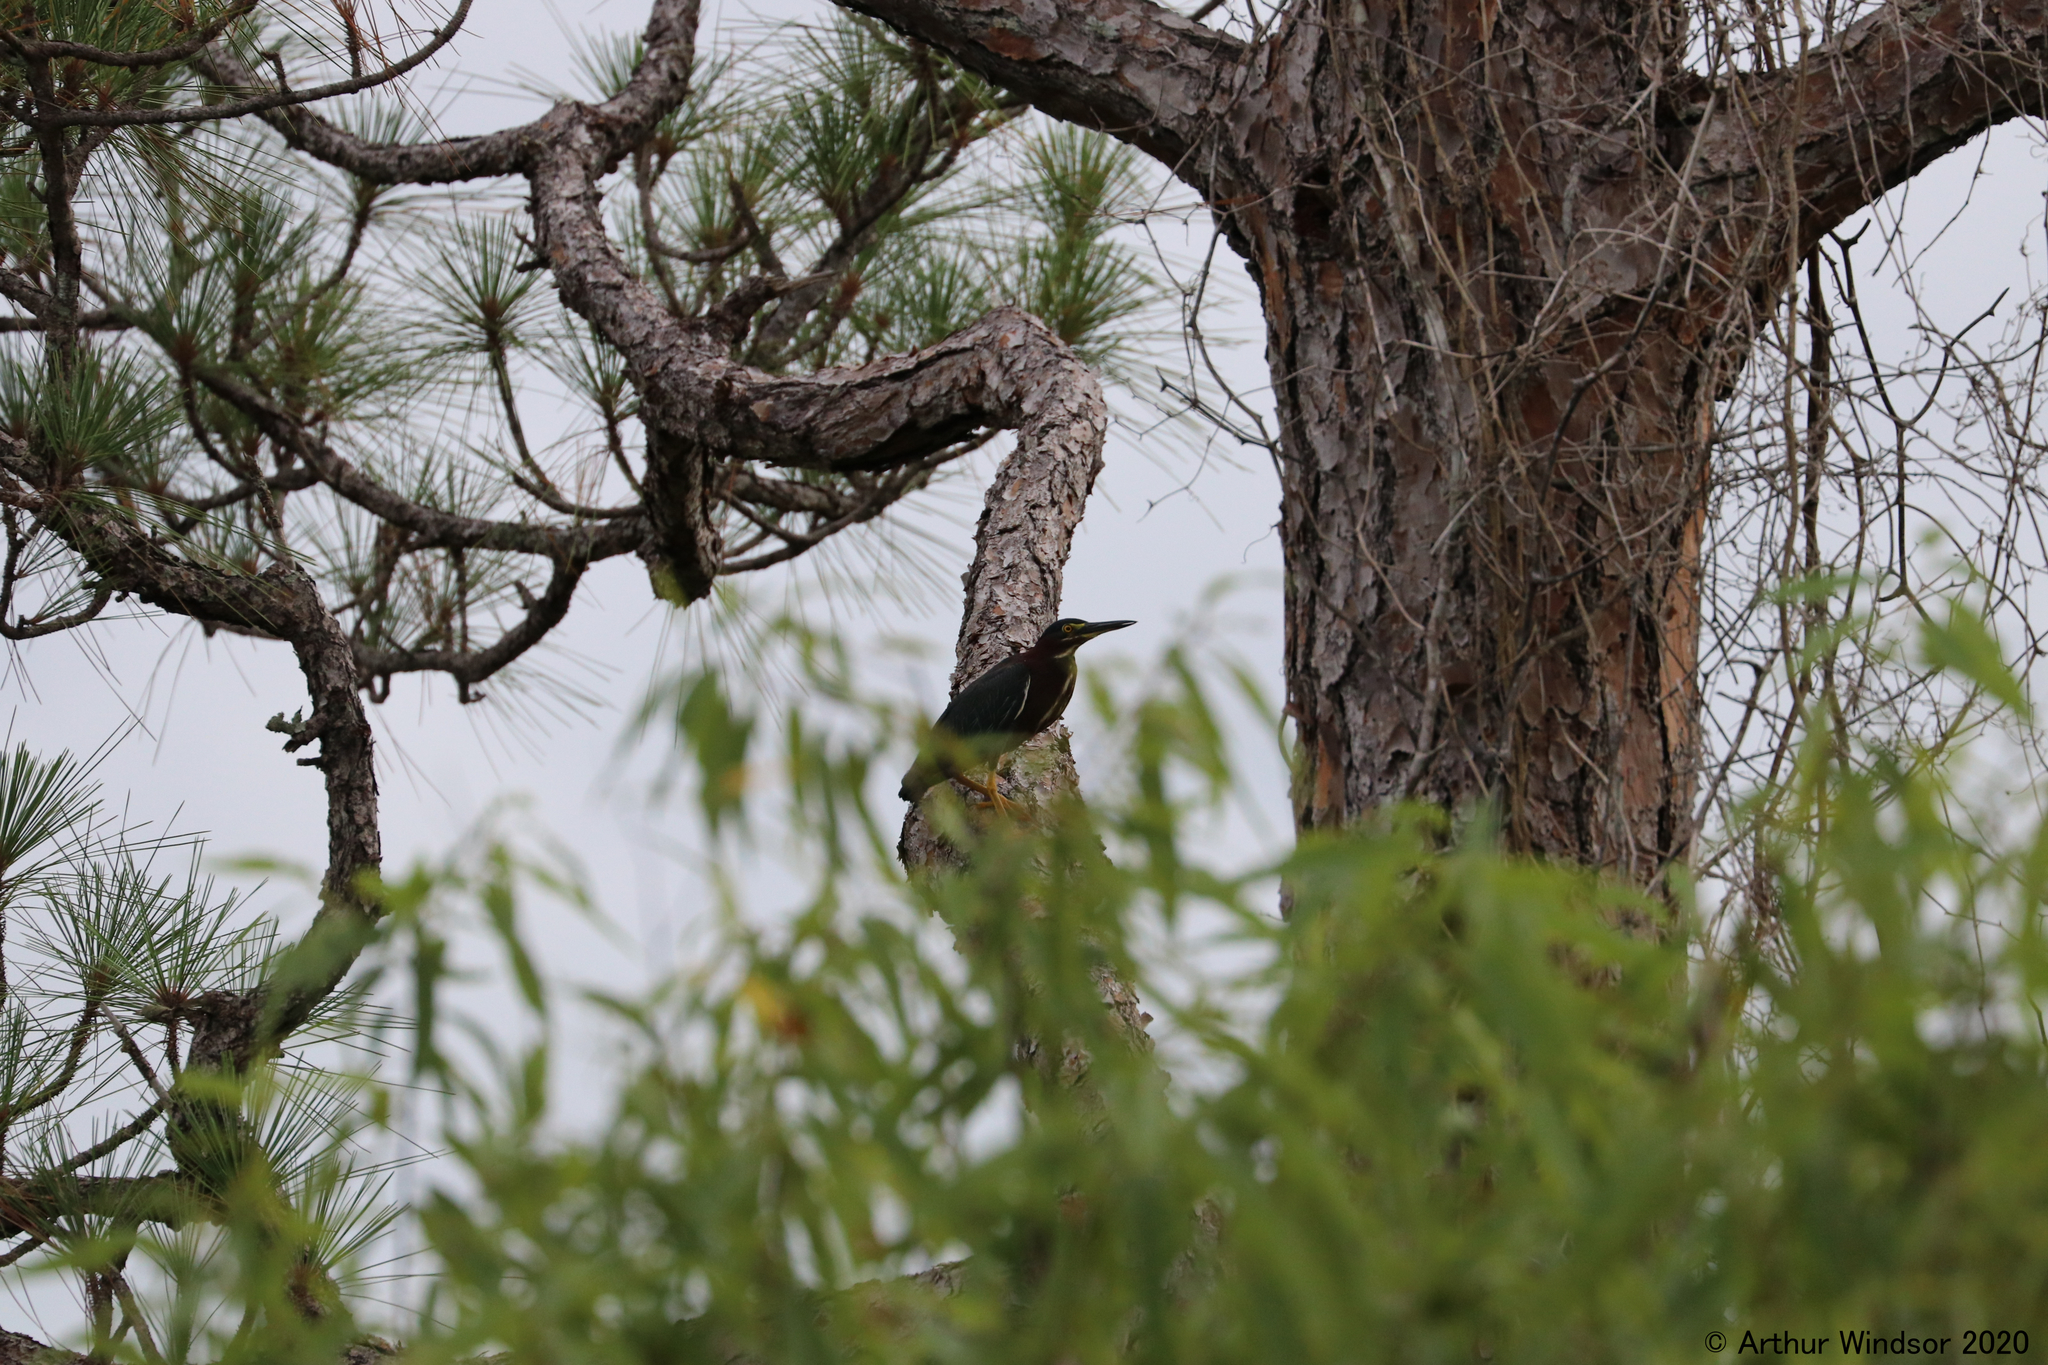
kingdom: Animalia
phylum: Chordata
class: Aves
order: Pelecaniformes
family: Ardeidae
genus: Butorides
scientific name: Butorides virescens
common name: Green heron
